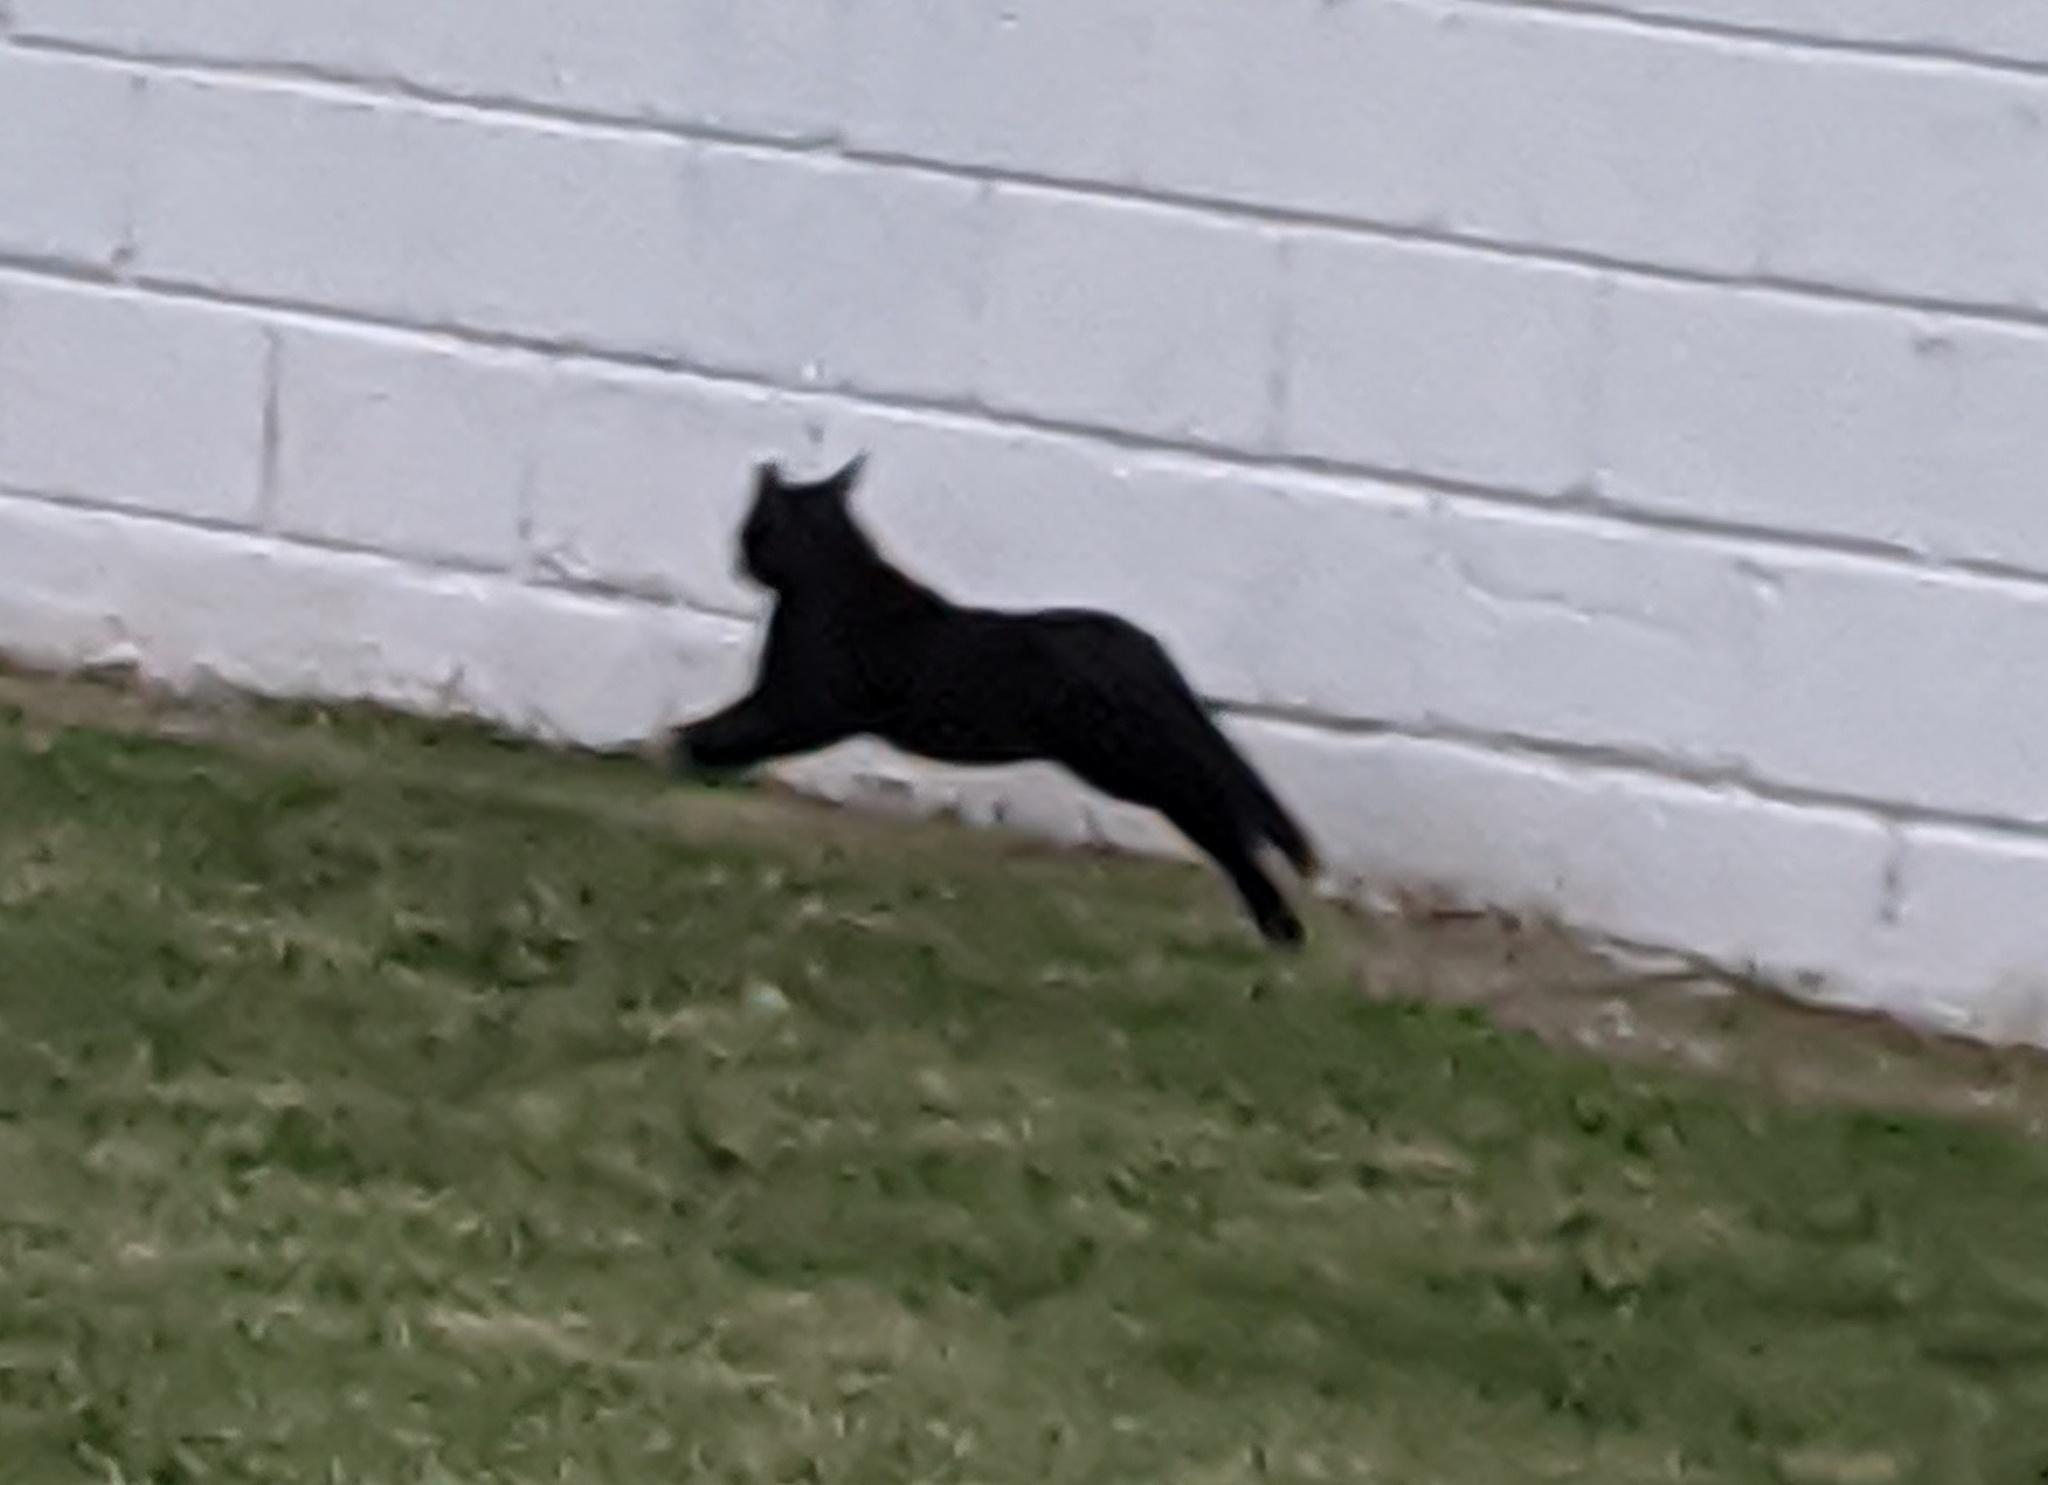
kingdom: Animalia
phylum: Chordata
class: Mammalia
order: Carnivora
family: Felidae
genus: Felis
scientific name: Felis catus
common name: Domestic cat
